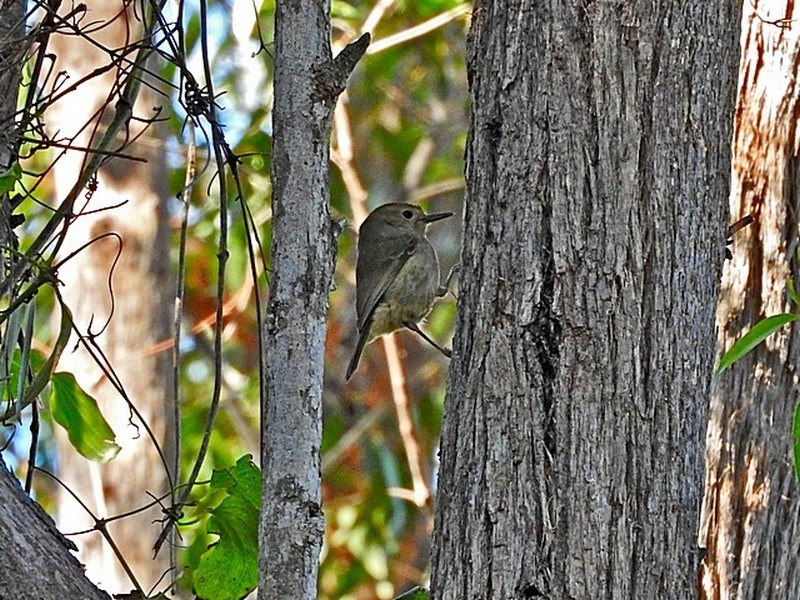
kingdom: Animalia
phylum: Chordata
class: Aves
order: Passeriformes
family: Acanthizidae
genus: Sericornis
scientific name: Sericornis magnirostra
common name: Large-billed scrubwren
